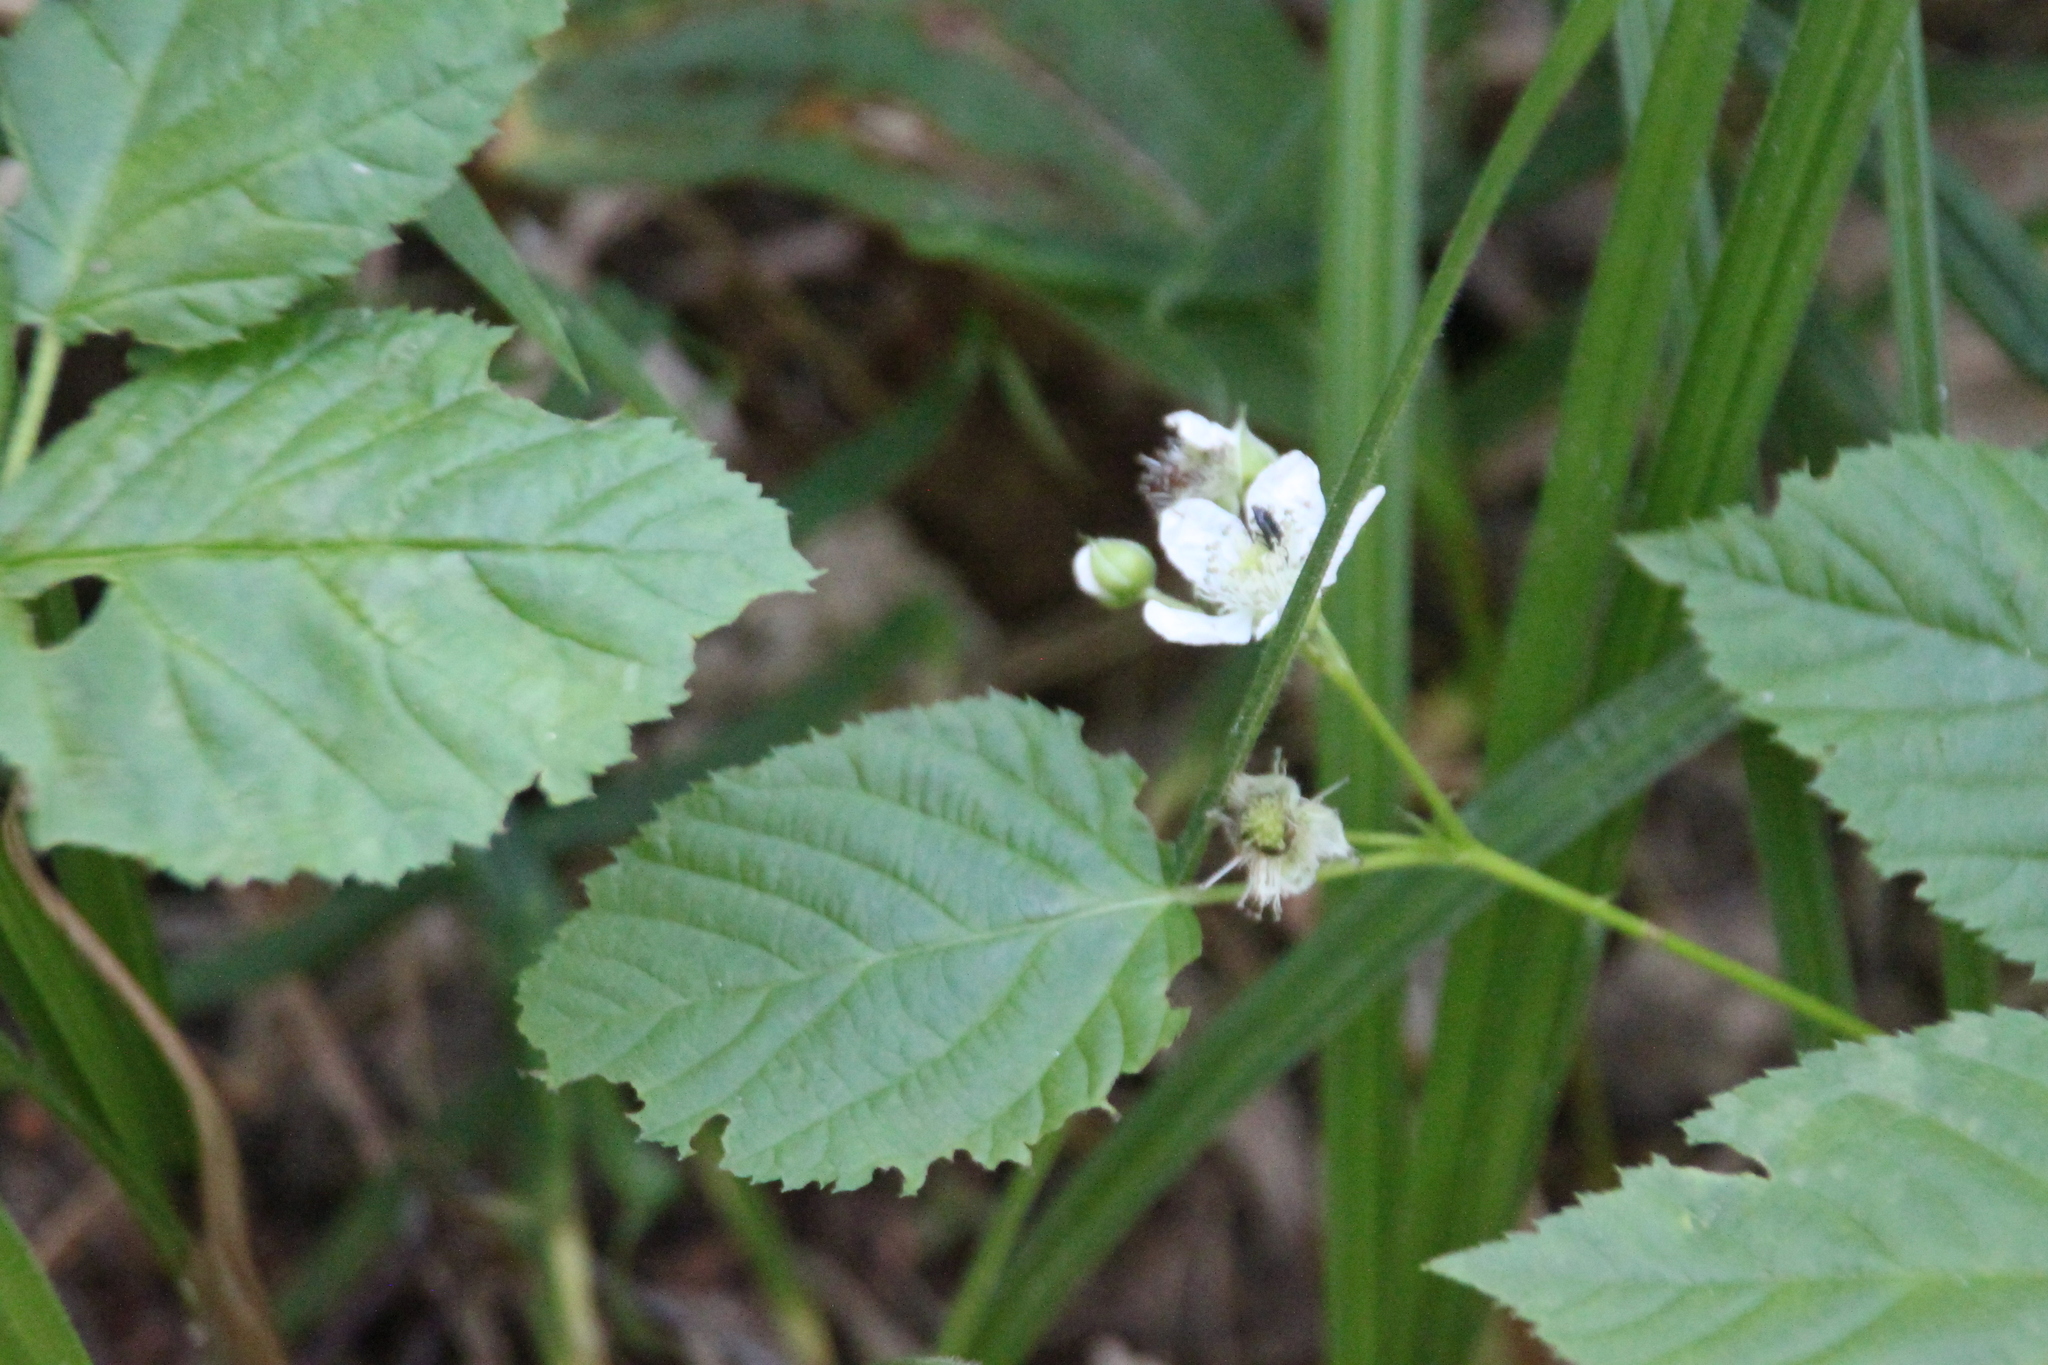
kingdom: Plantae
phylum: Tracheophyta
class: Magnoliopsida
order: Rosales
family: Rosaceae
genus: Rubus
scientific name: Rubus polonicus
